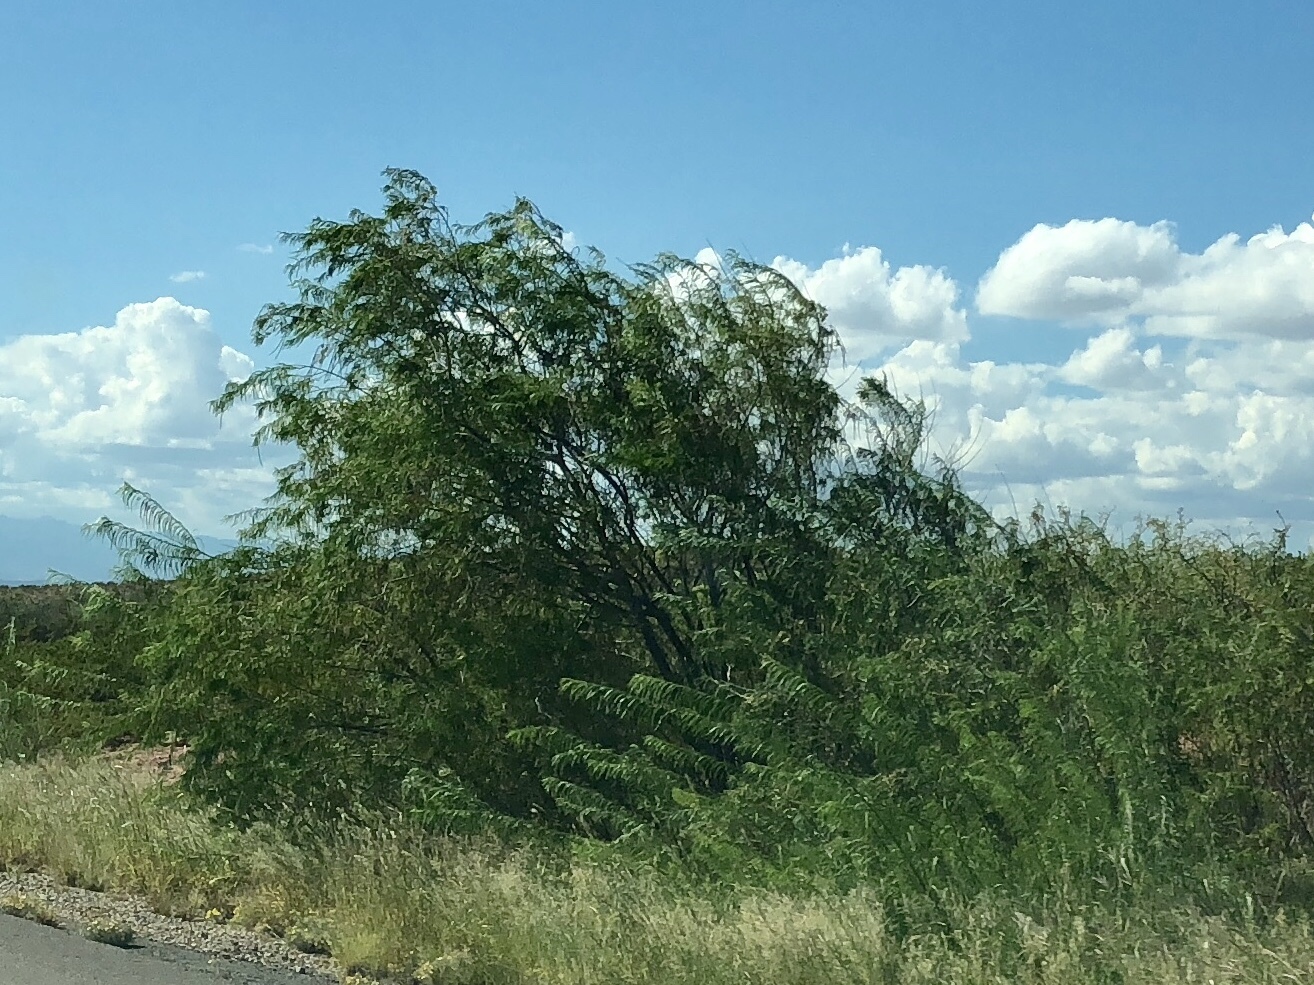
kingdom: Plantae
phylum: Tracheophyta
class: Magnoliopsida
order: Lamiales
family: Bignoniaceae
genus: Chilopsis
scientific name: Chilopsis linearis
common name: Desert-willow
